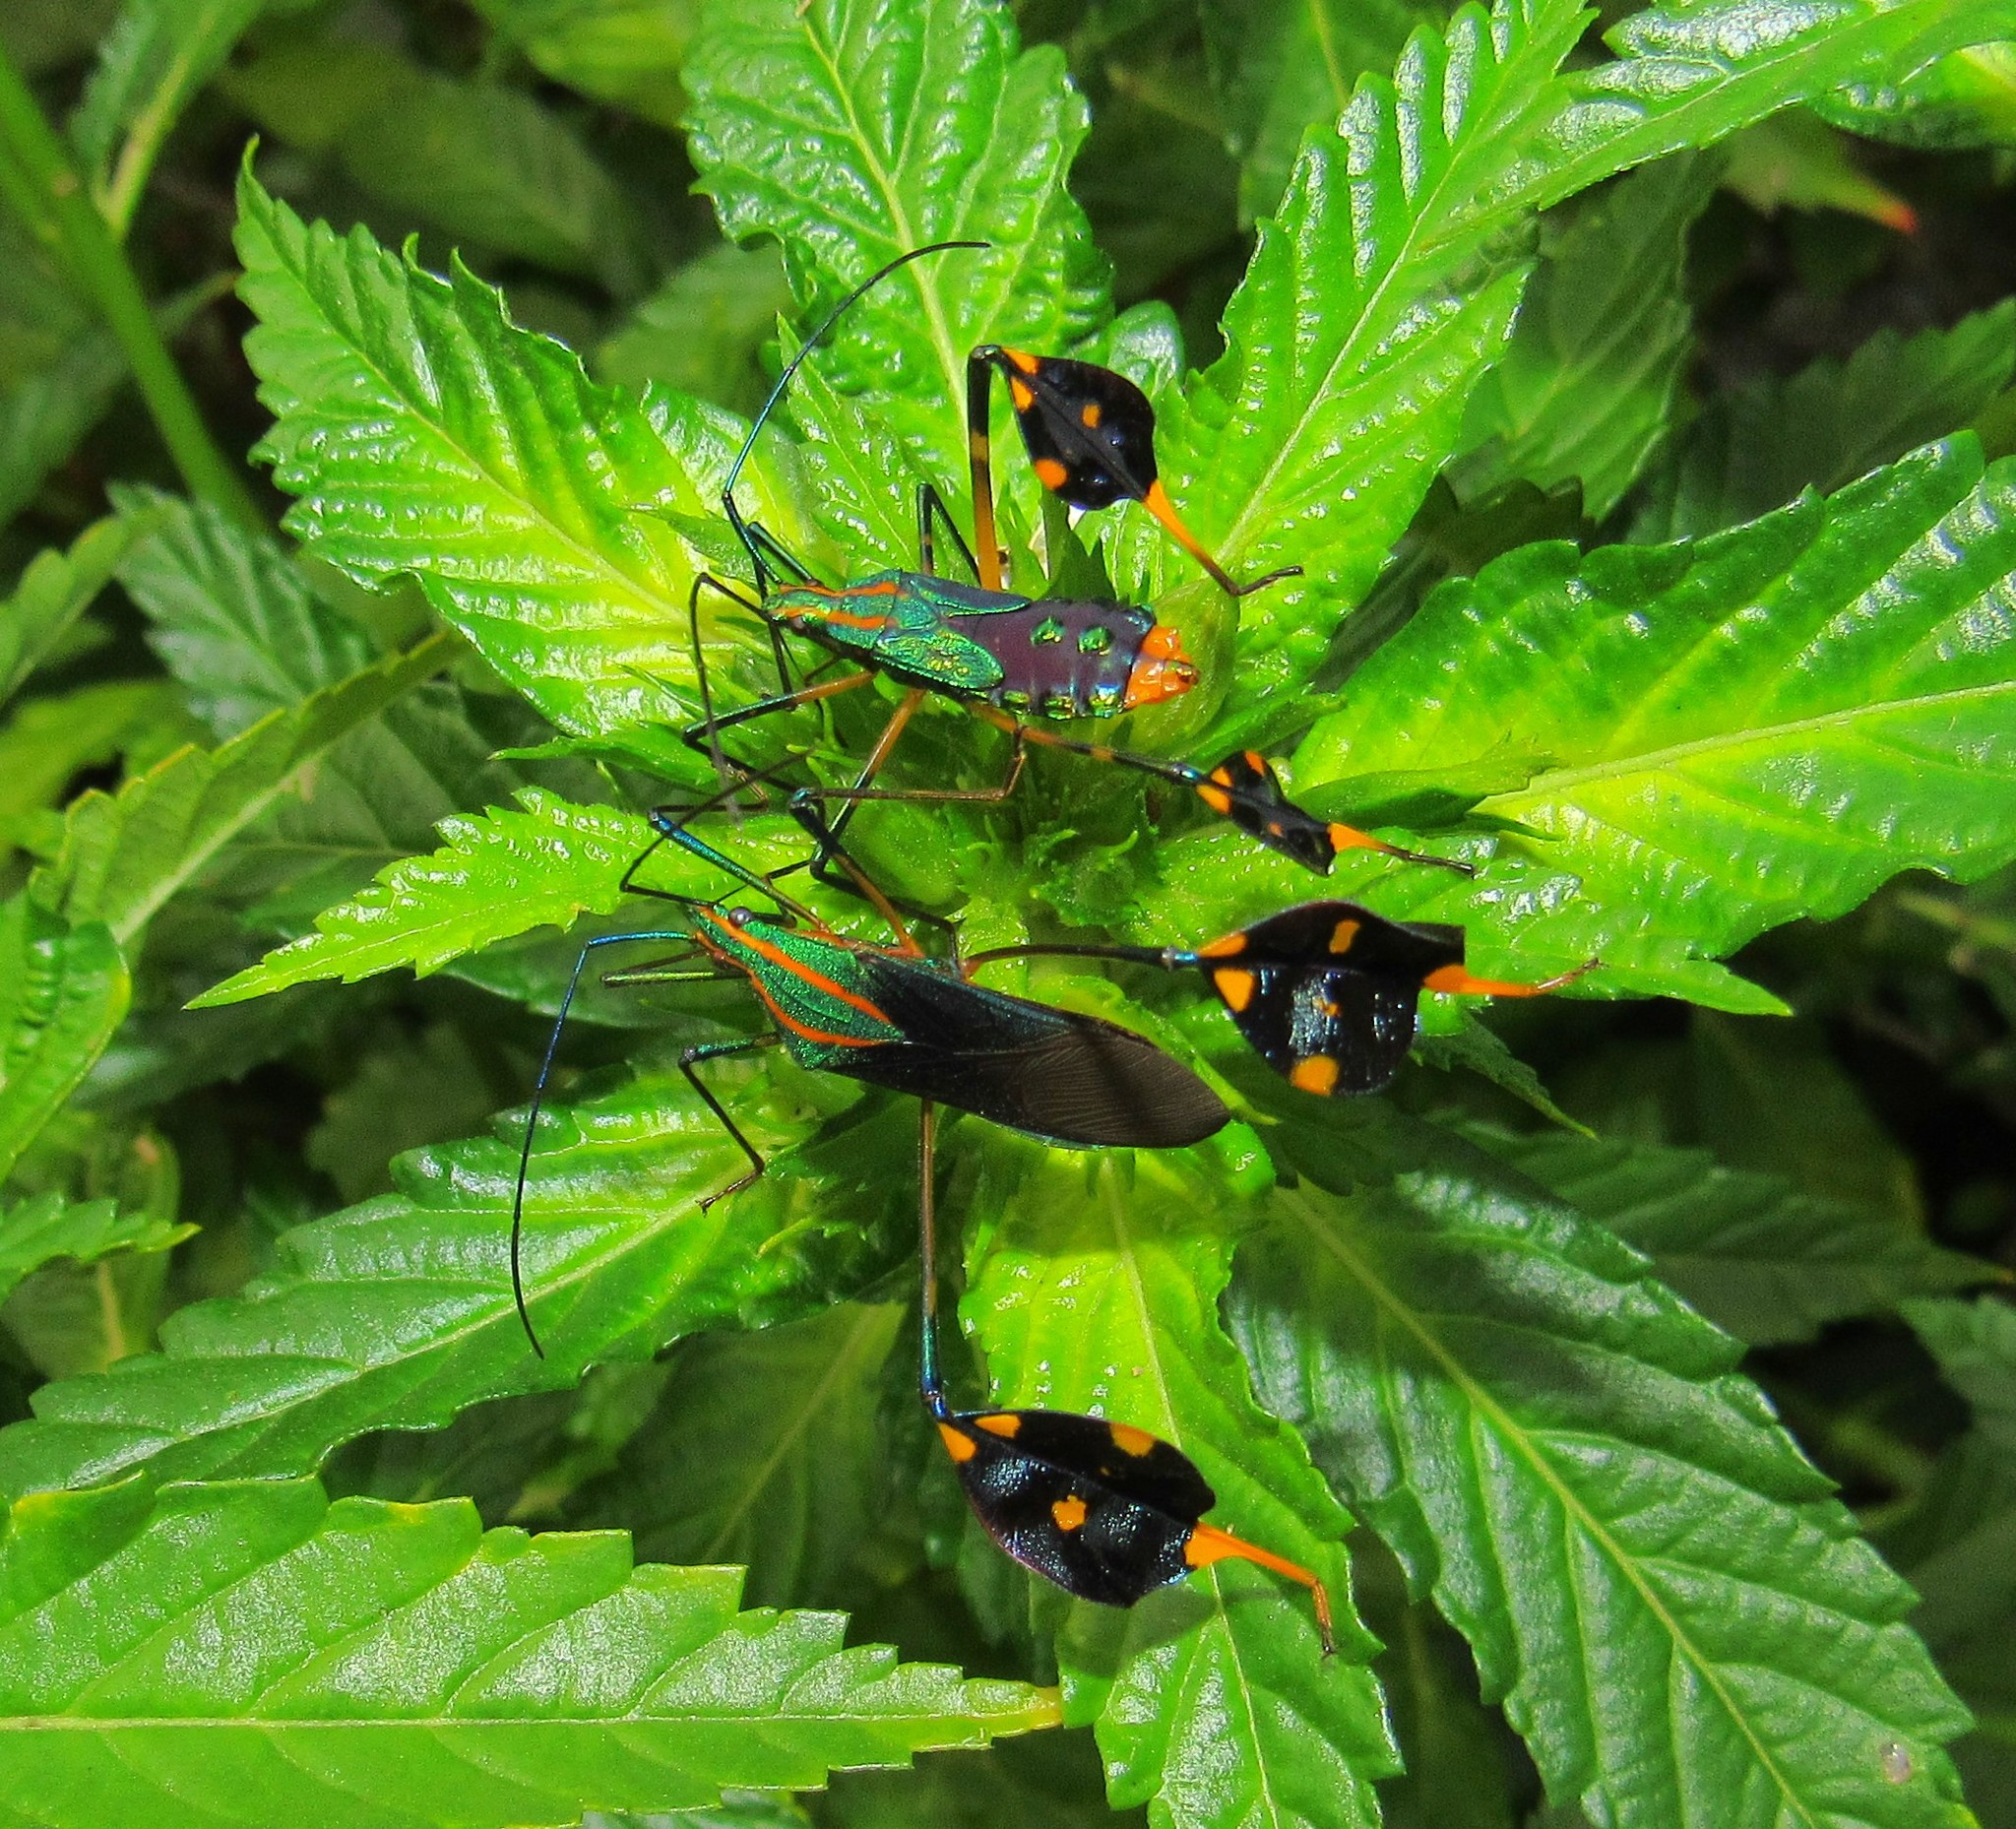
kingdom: Animalia
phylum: Arthropoda
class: Insecta
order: Hemiptera
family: Coreidae
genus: Diactor
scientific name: Diactor bilineatus
